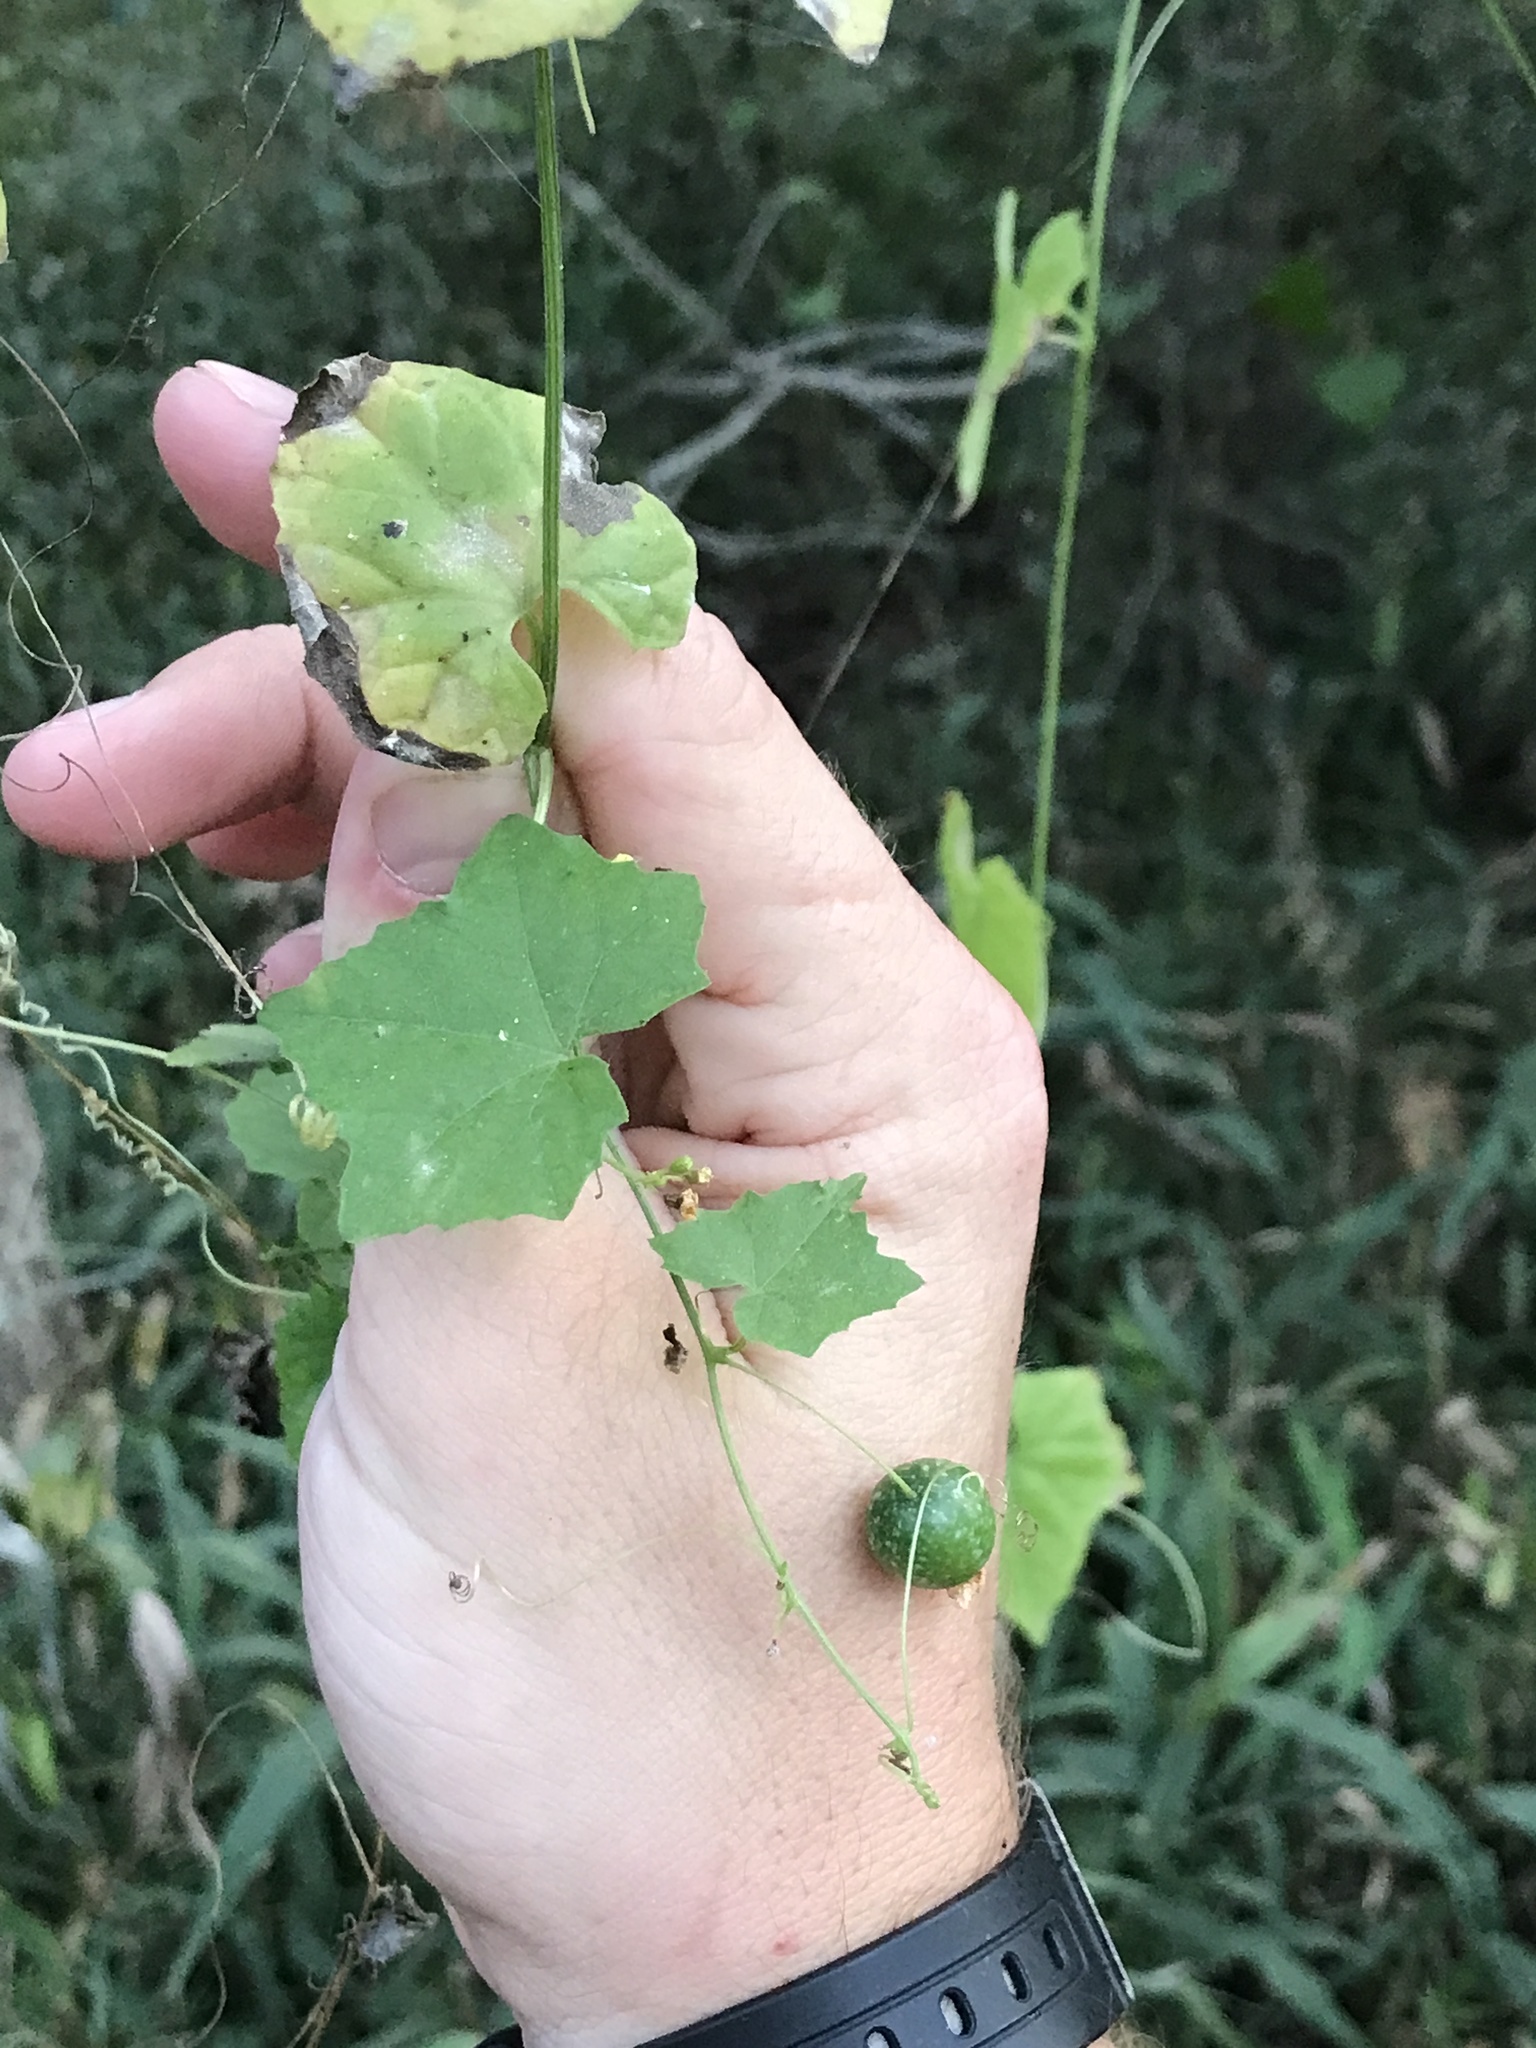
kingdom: Plantae
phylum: Tracheophyta
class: Magnoliopsida
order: Cucurbitales
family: Cucurbitaceae
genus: Melothria
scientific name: Melothria pendula
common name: Creeping-cucumber
